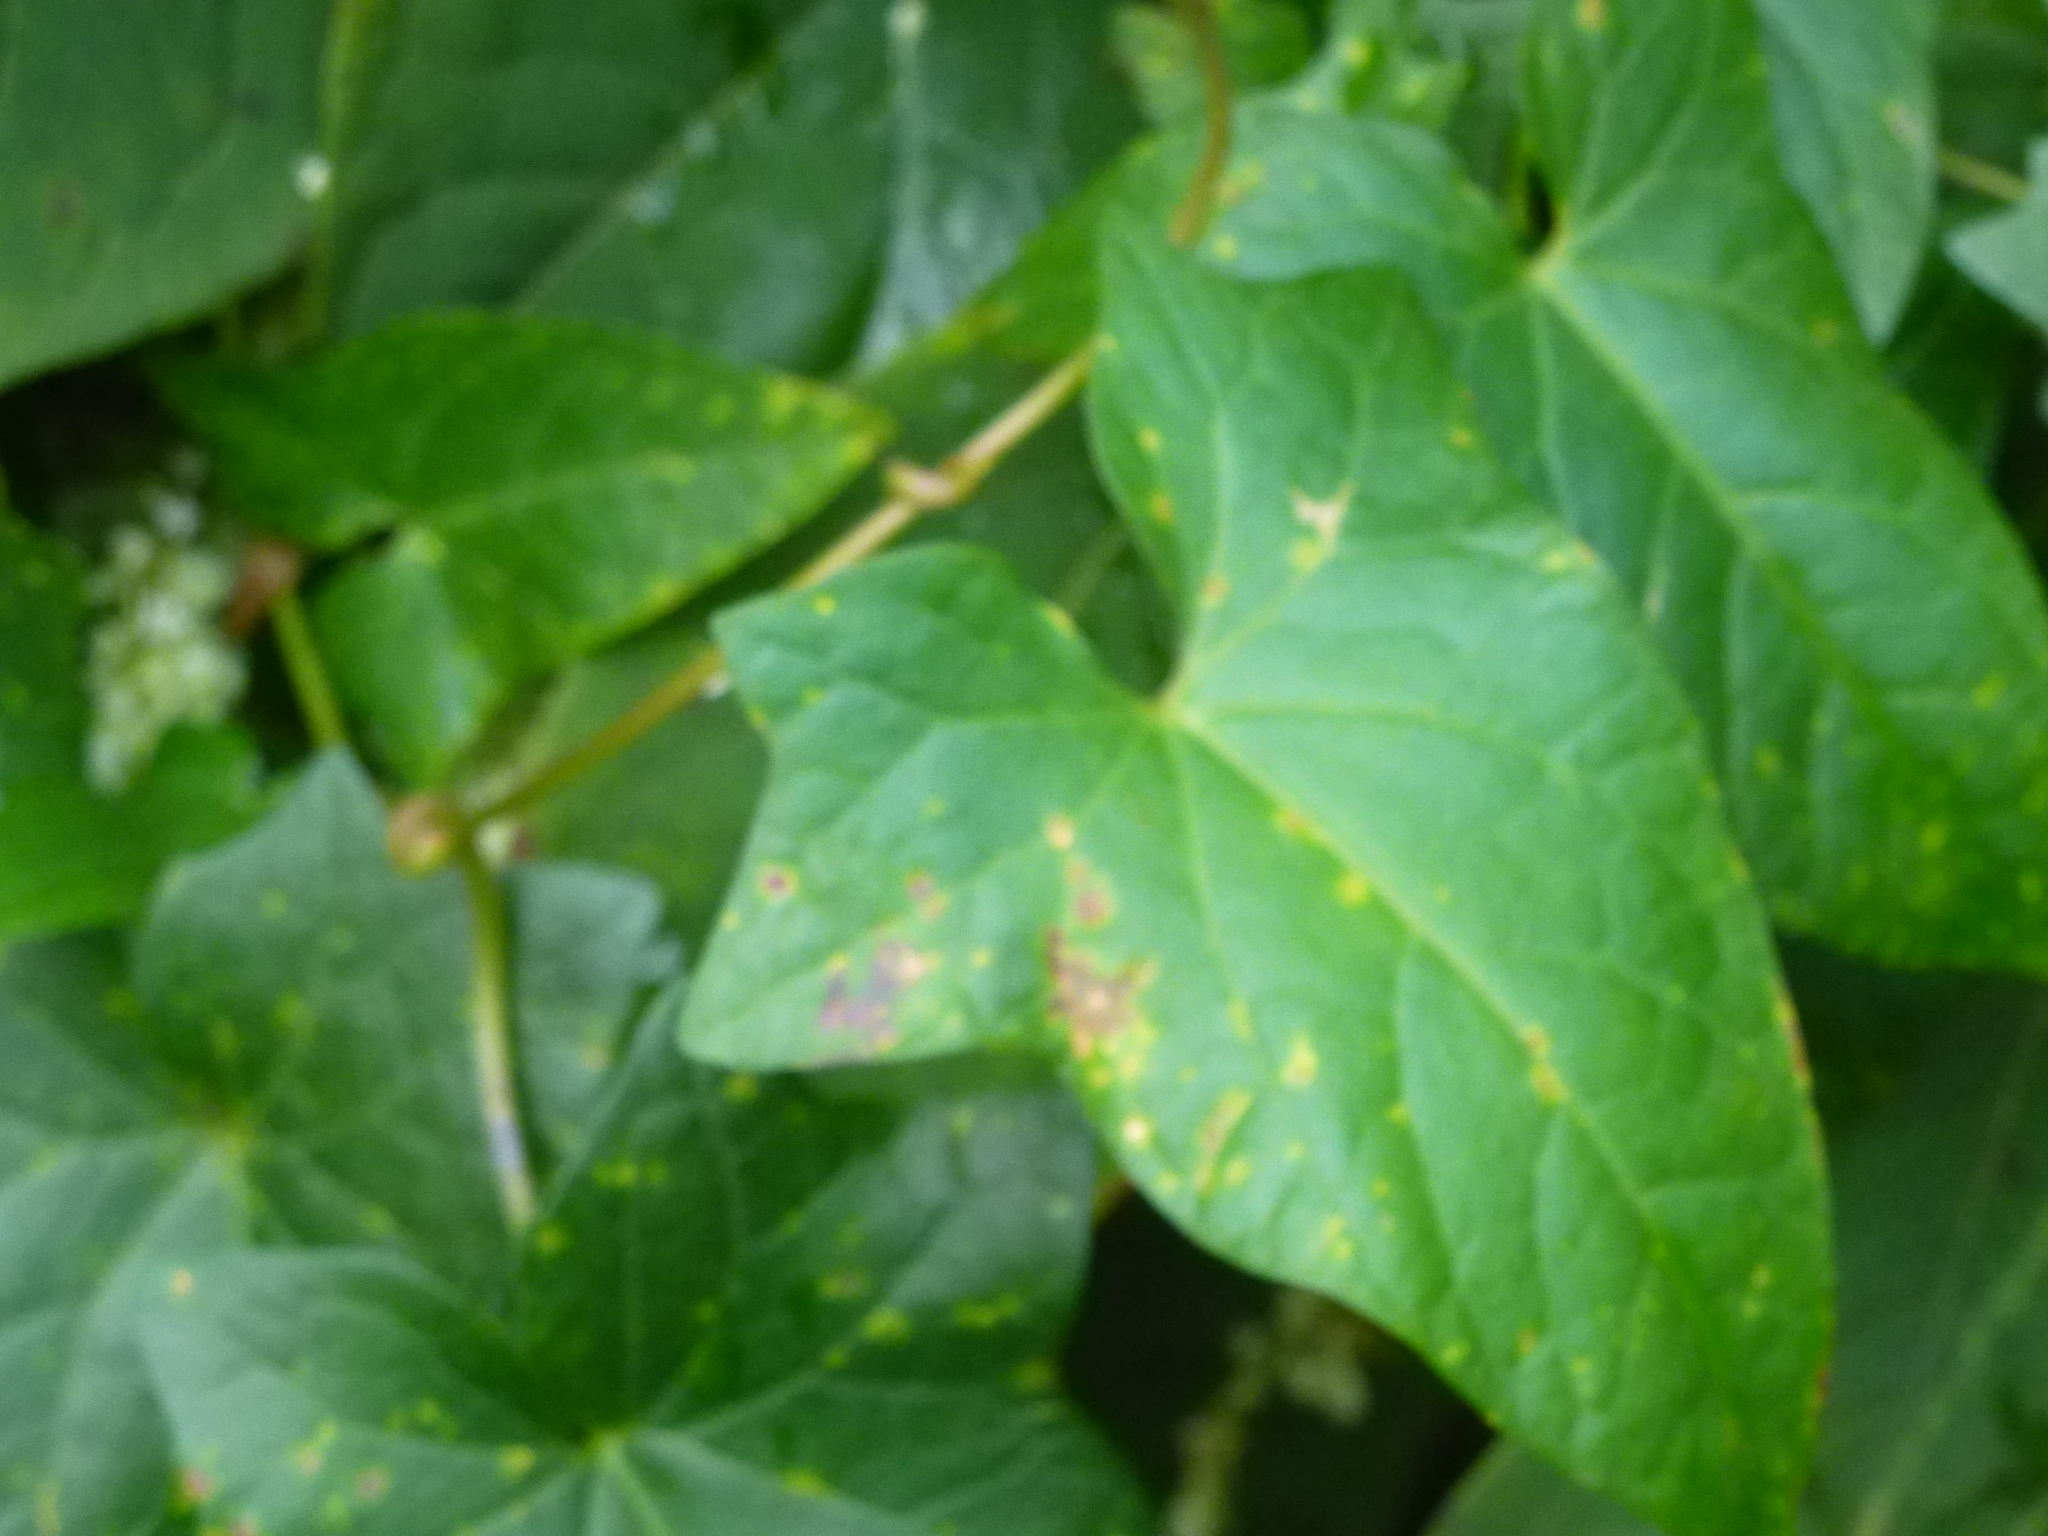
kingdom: Plantae
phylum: Tracheophyta
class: Magnoliopsida
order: Solanales
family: Convolvulaceae
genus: Calystegia
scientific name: Calystegia sepium
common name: Hedge bindweed
